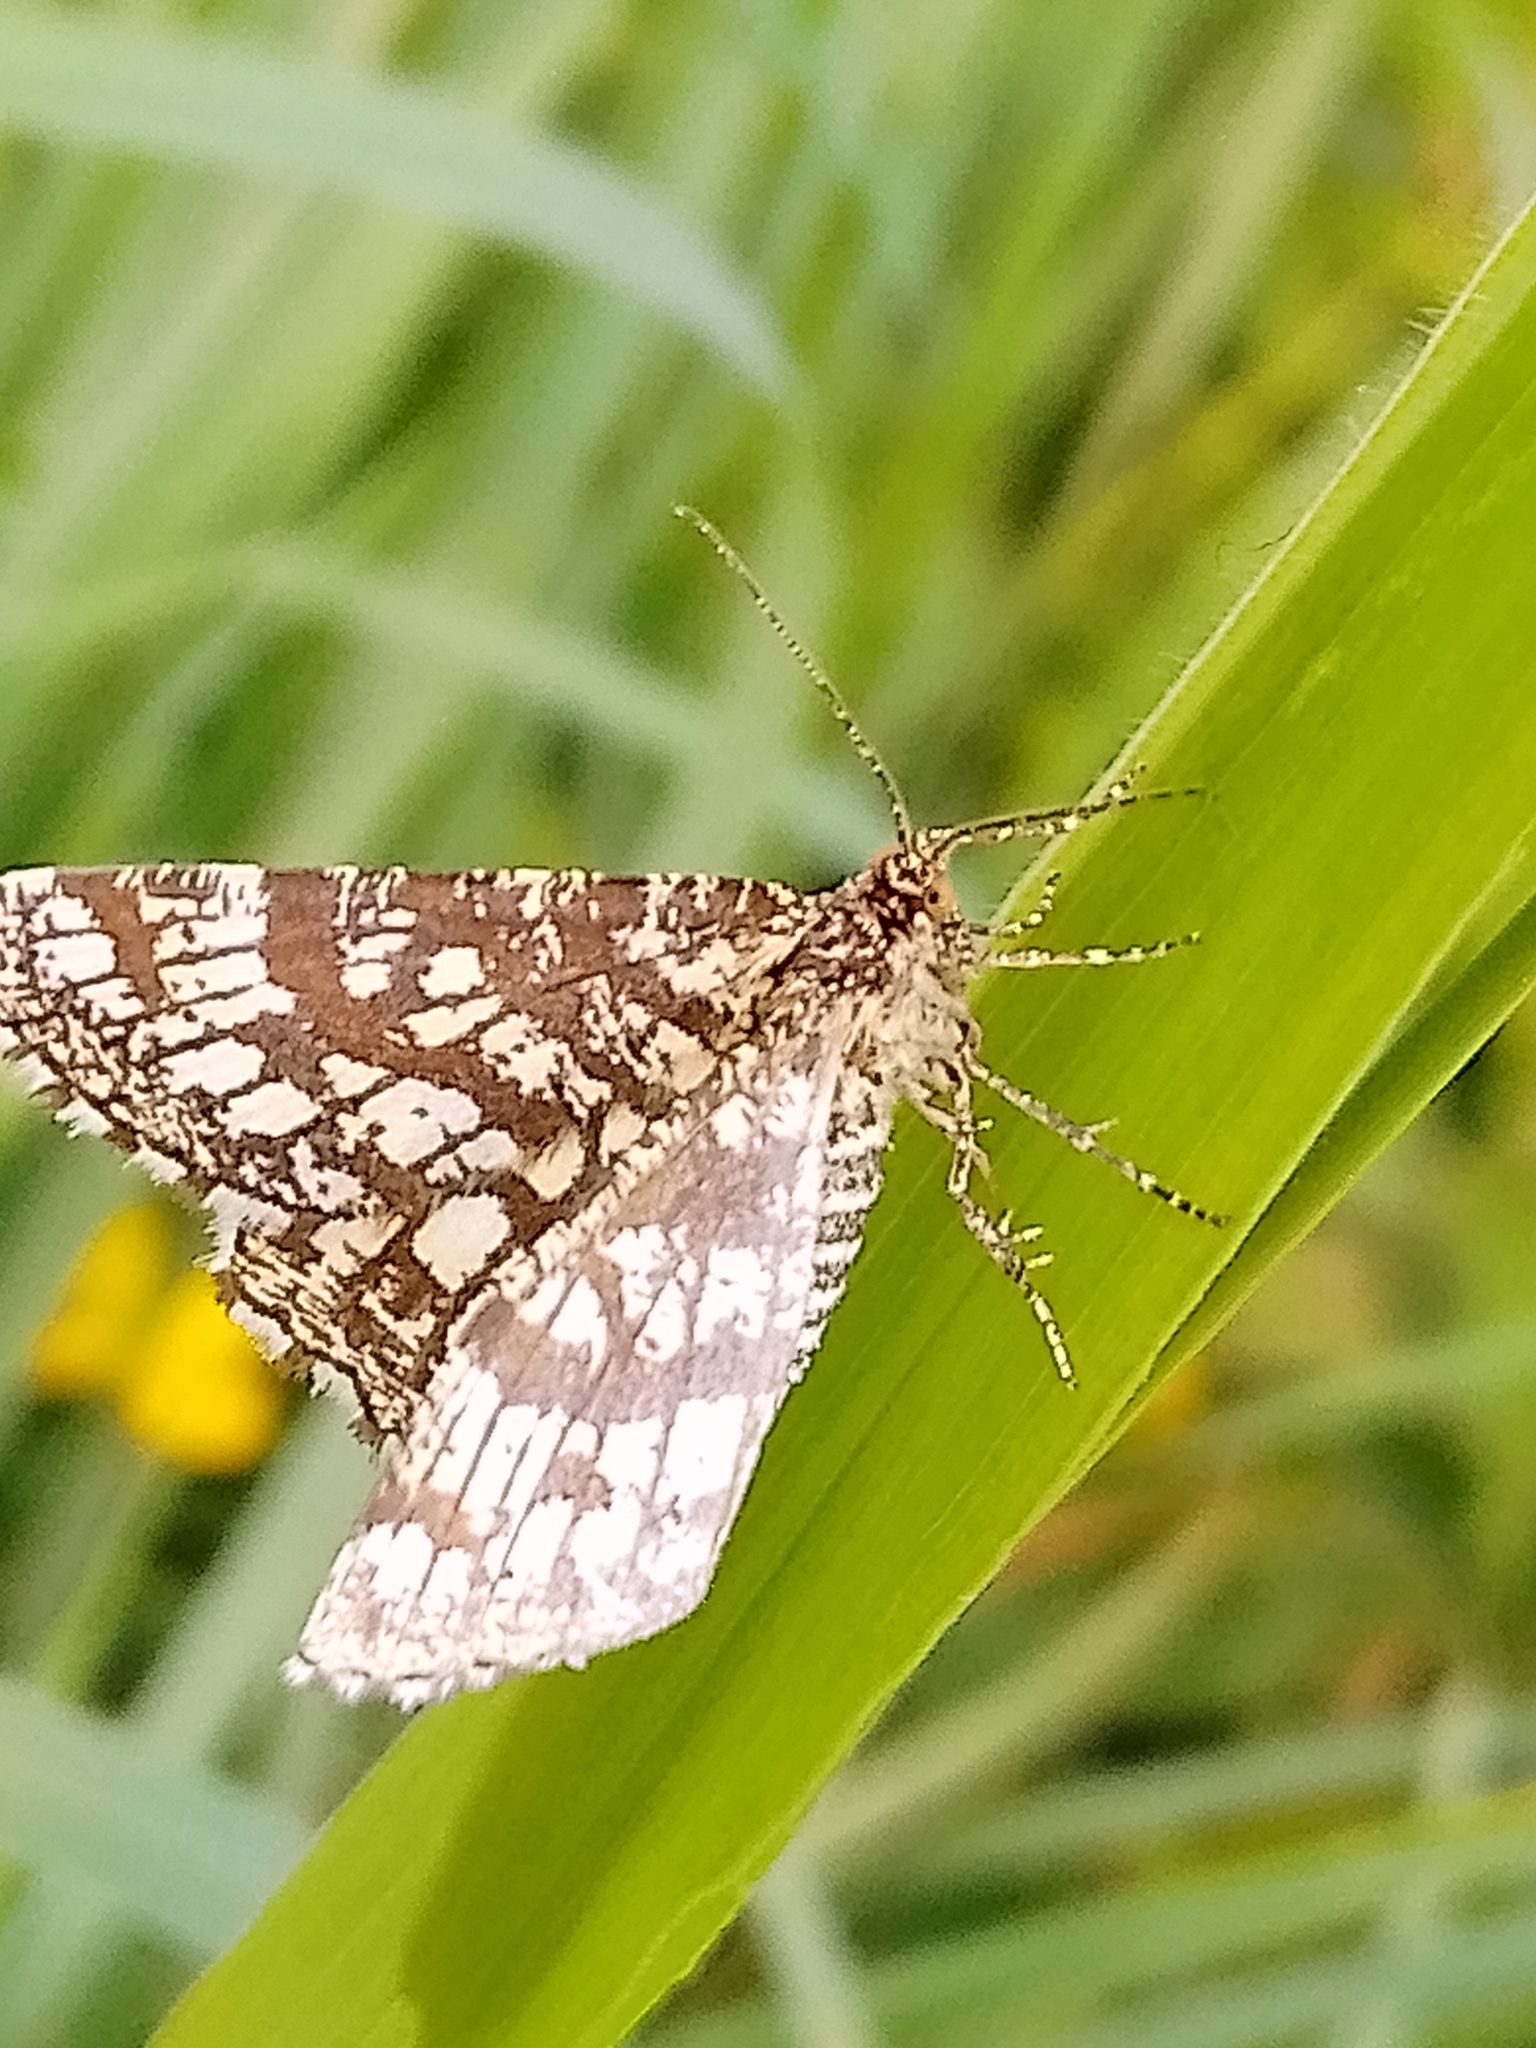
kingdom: Animalia
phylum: Arthropoda
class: Insecta
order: Lepidoptera
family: Geometridae
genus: Chiasmia
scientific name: Chiasmia clathrata
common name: Latticed heath
